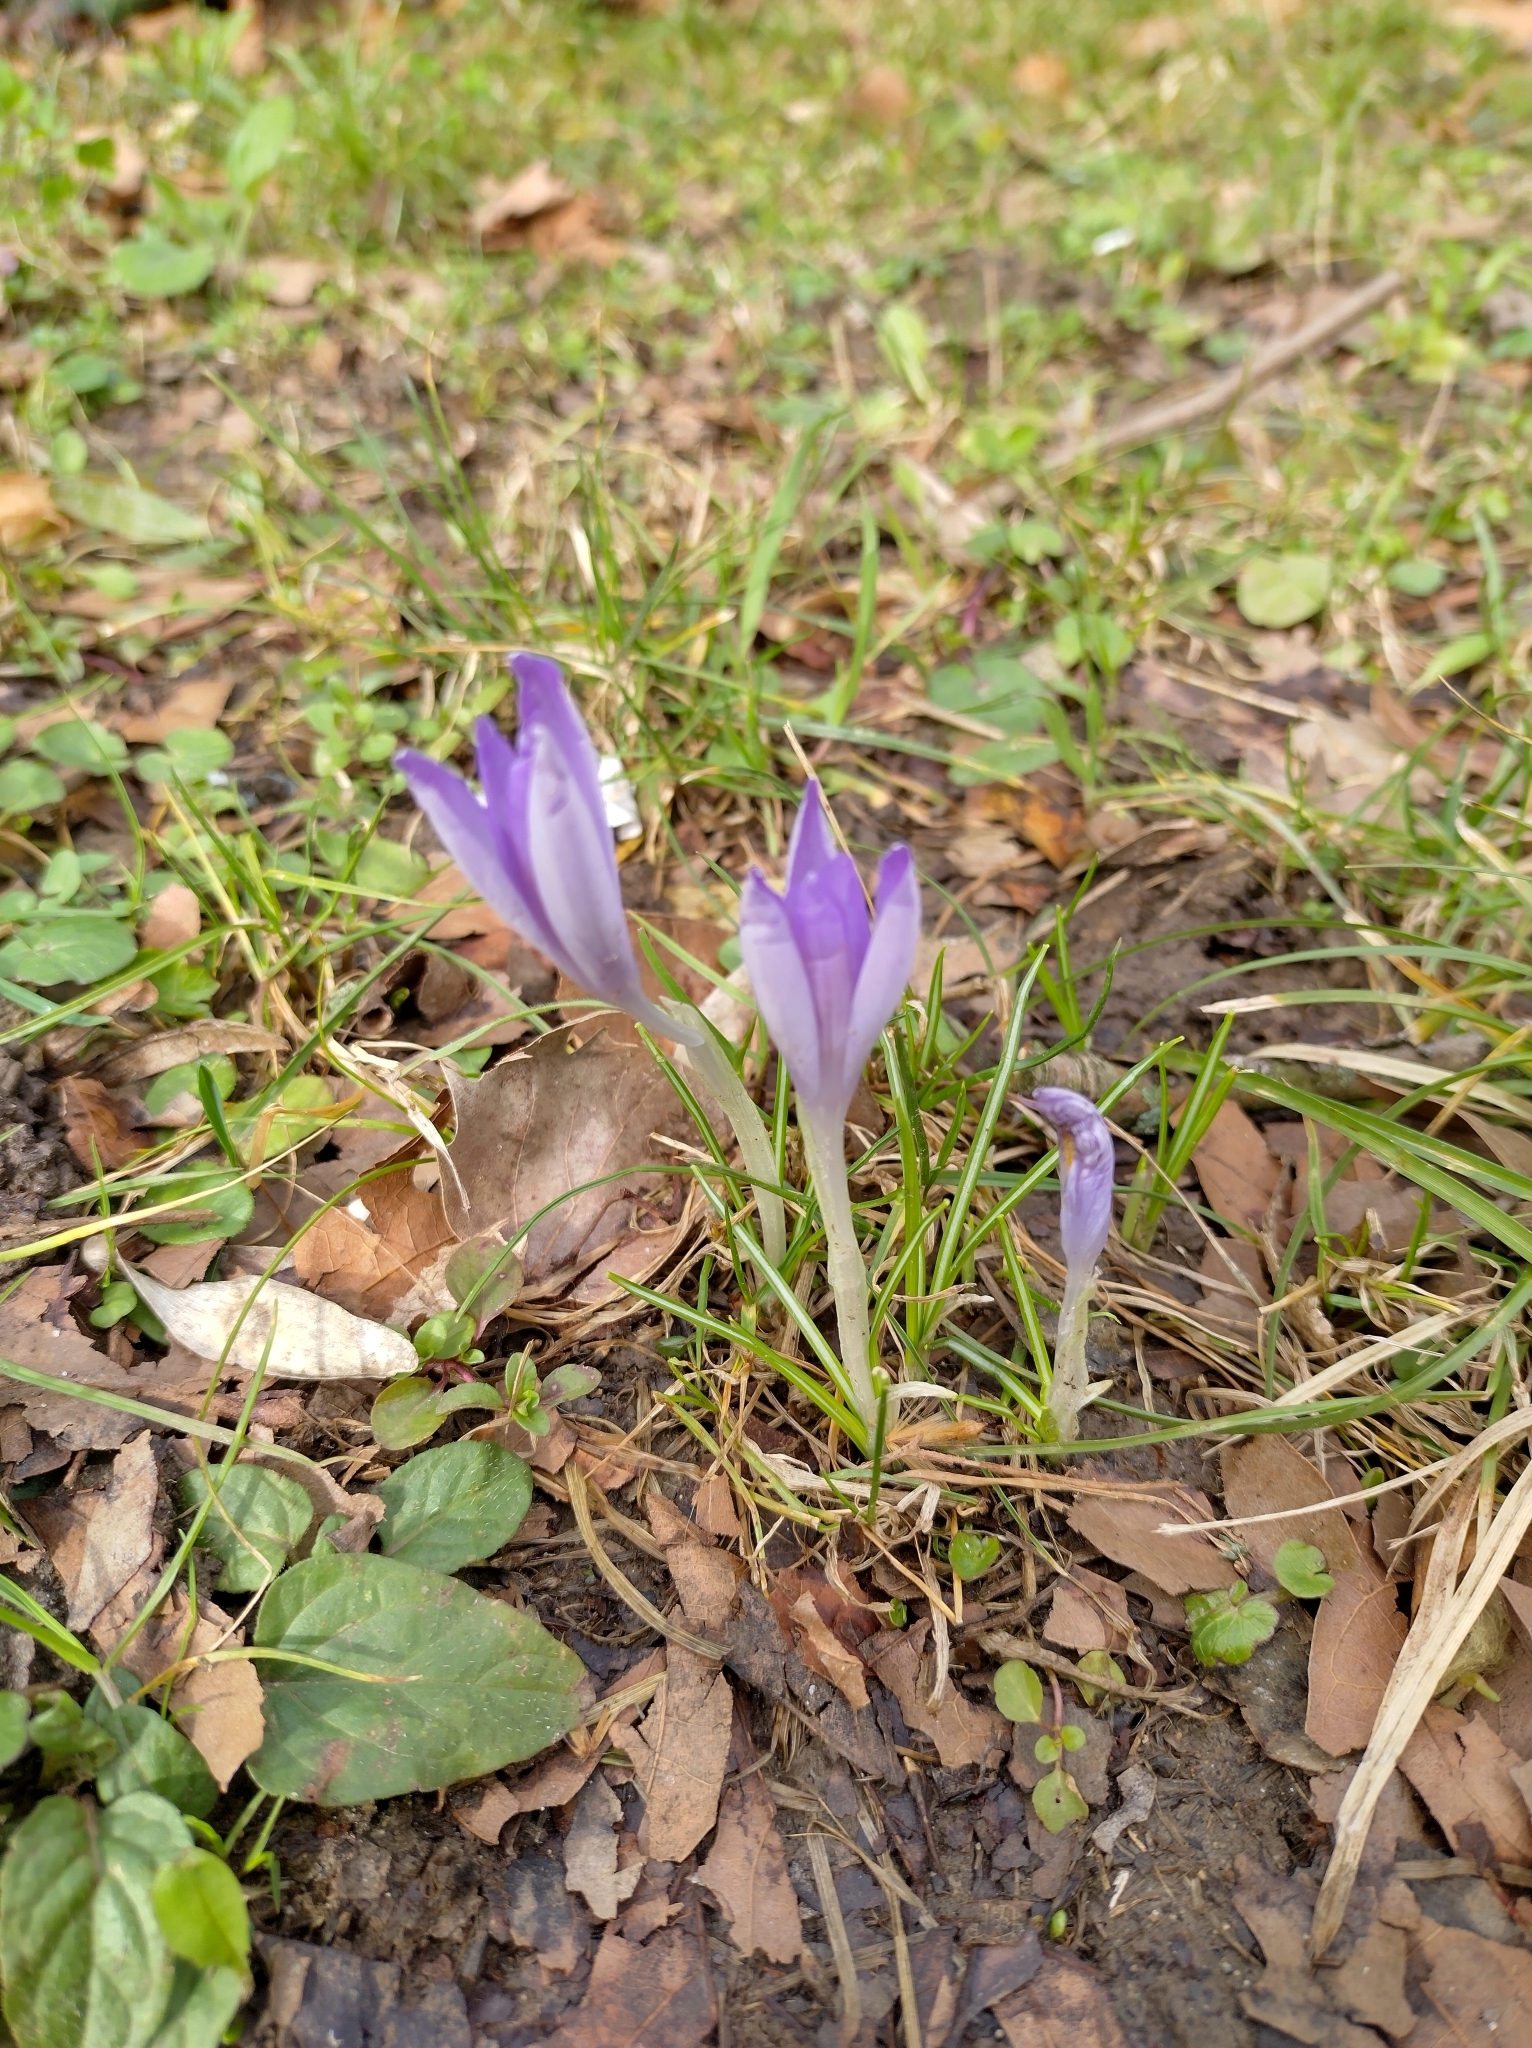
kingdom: Plantae
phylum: Tracheophyta
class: Liliopsida
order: Asparagales
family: Iridaceae
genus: Crocus
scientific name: Crocus tommasinianus
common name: Early crocus
